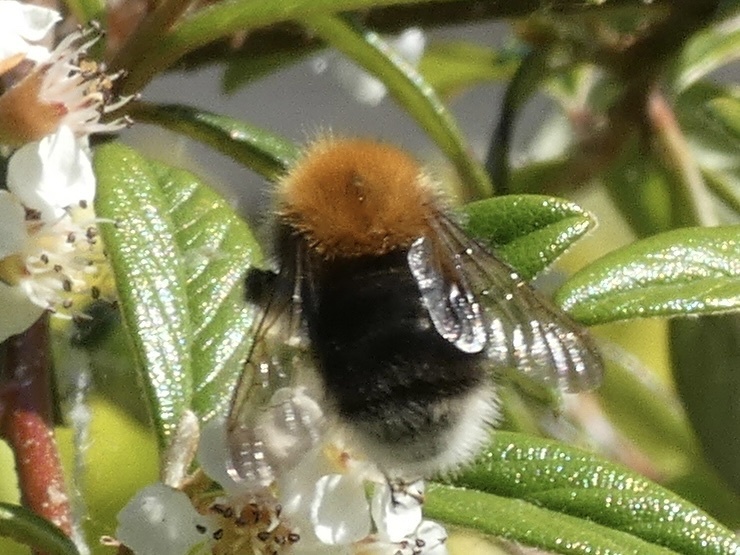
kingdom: Animalia
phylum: Arthropoda
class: Insecta
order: Hymenoptera
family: Apidae
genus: Bombus
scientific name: Bombus hypnorum
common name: New garden bumblebee
